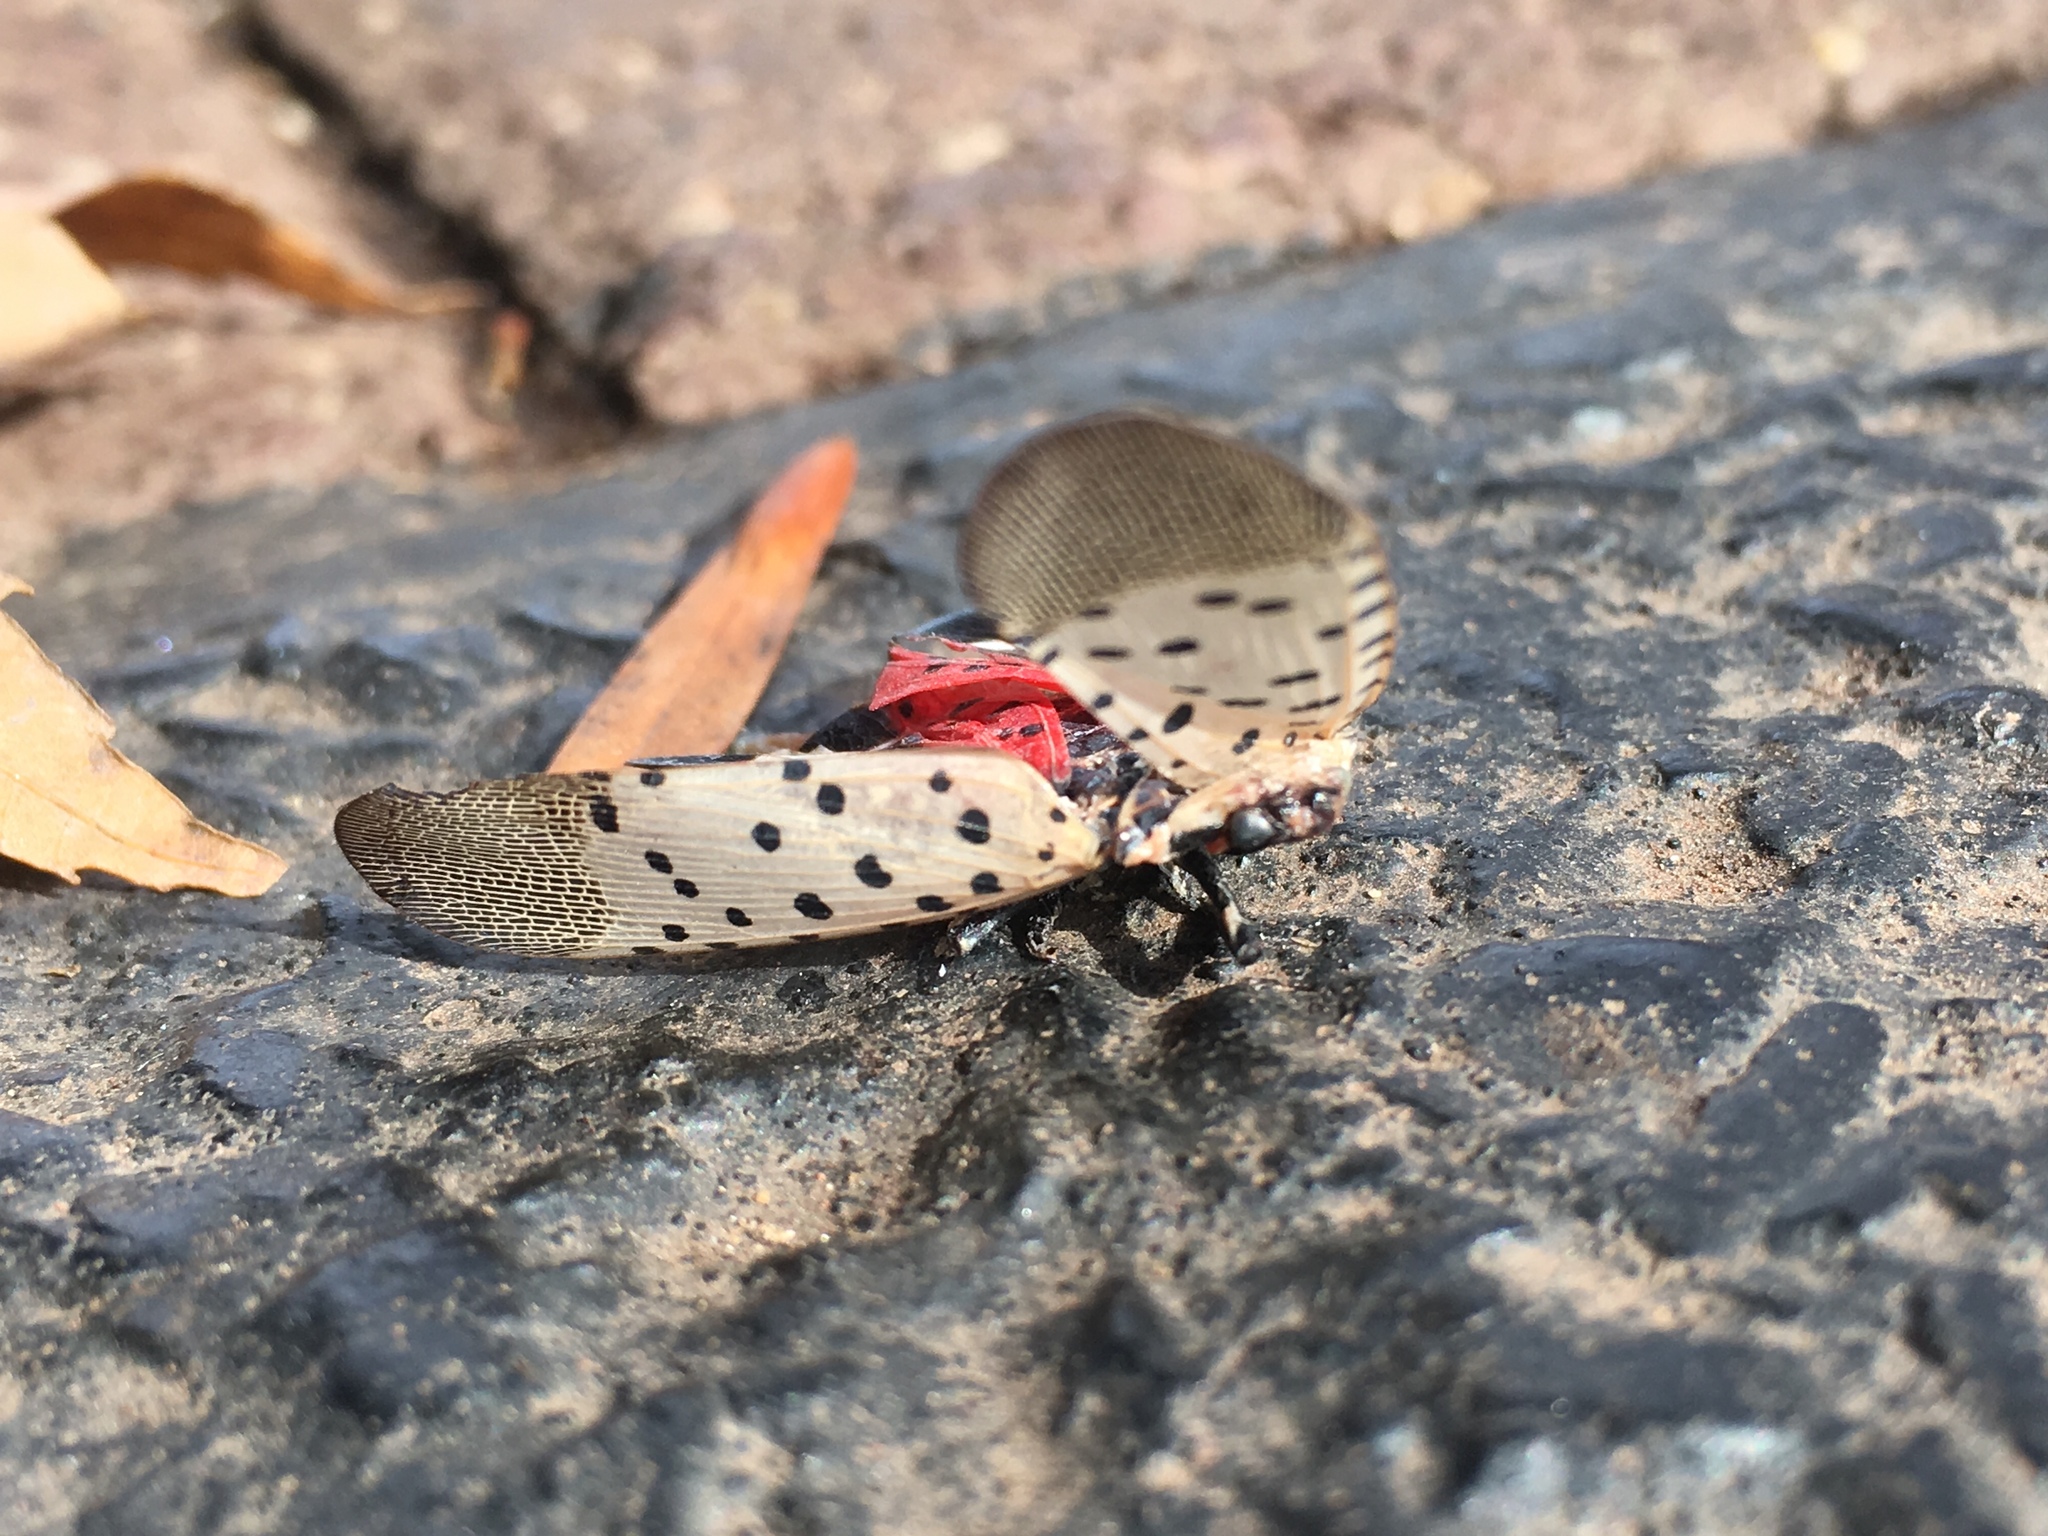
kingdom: Animalia
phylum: Arthropoda
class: Insecta
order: Hemiptera
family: Fulgoridae
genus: Lycorma
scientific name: Lycorma delicatula
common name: Spotted lanternfly
